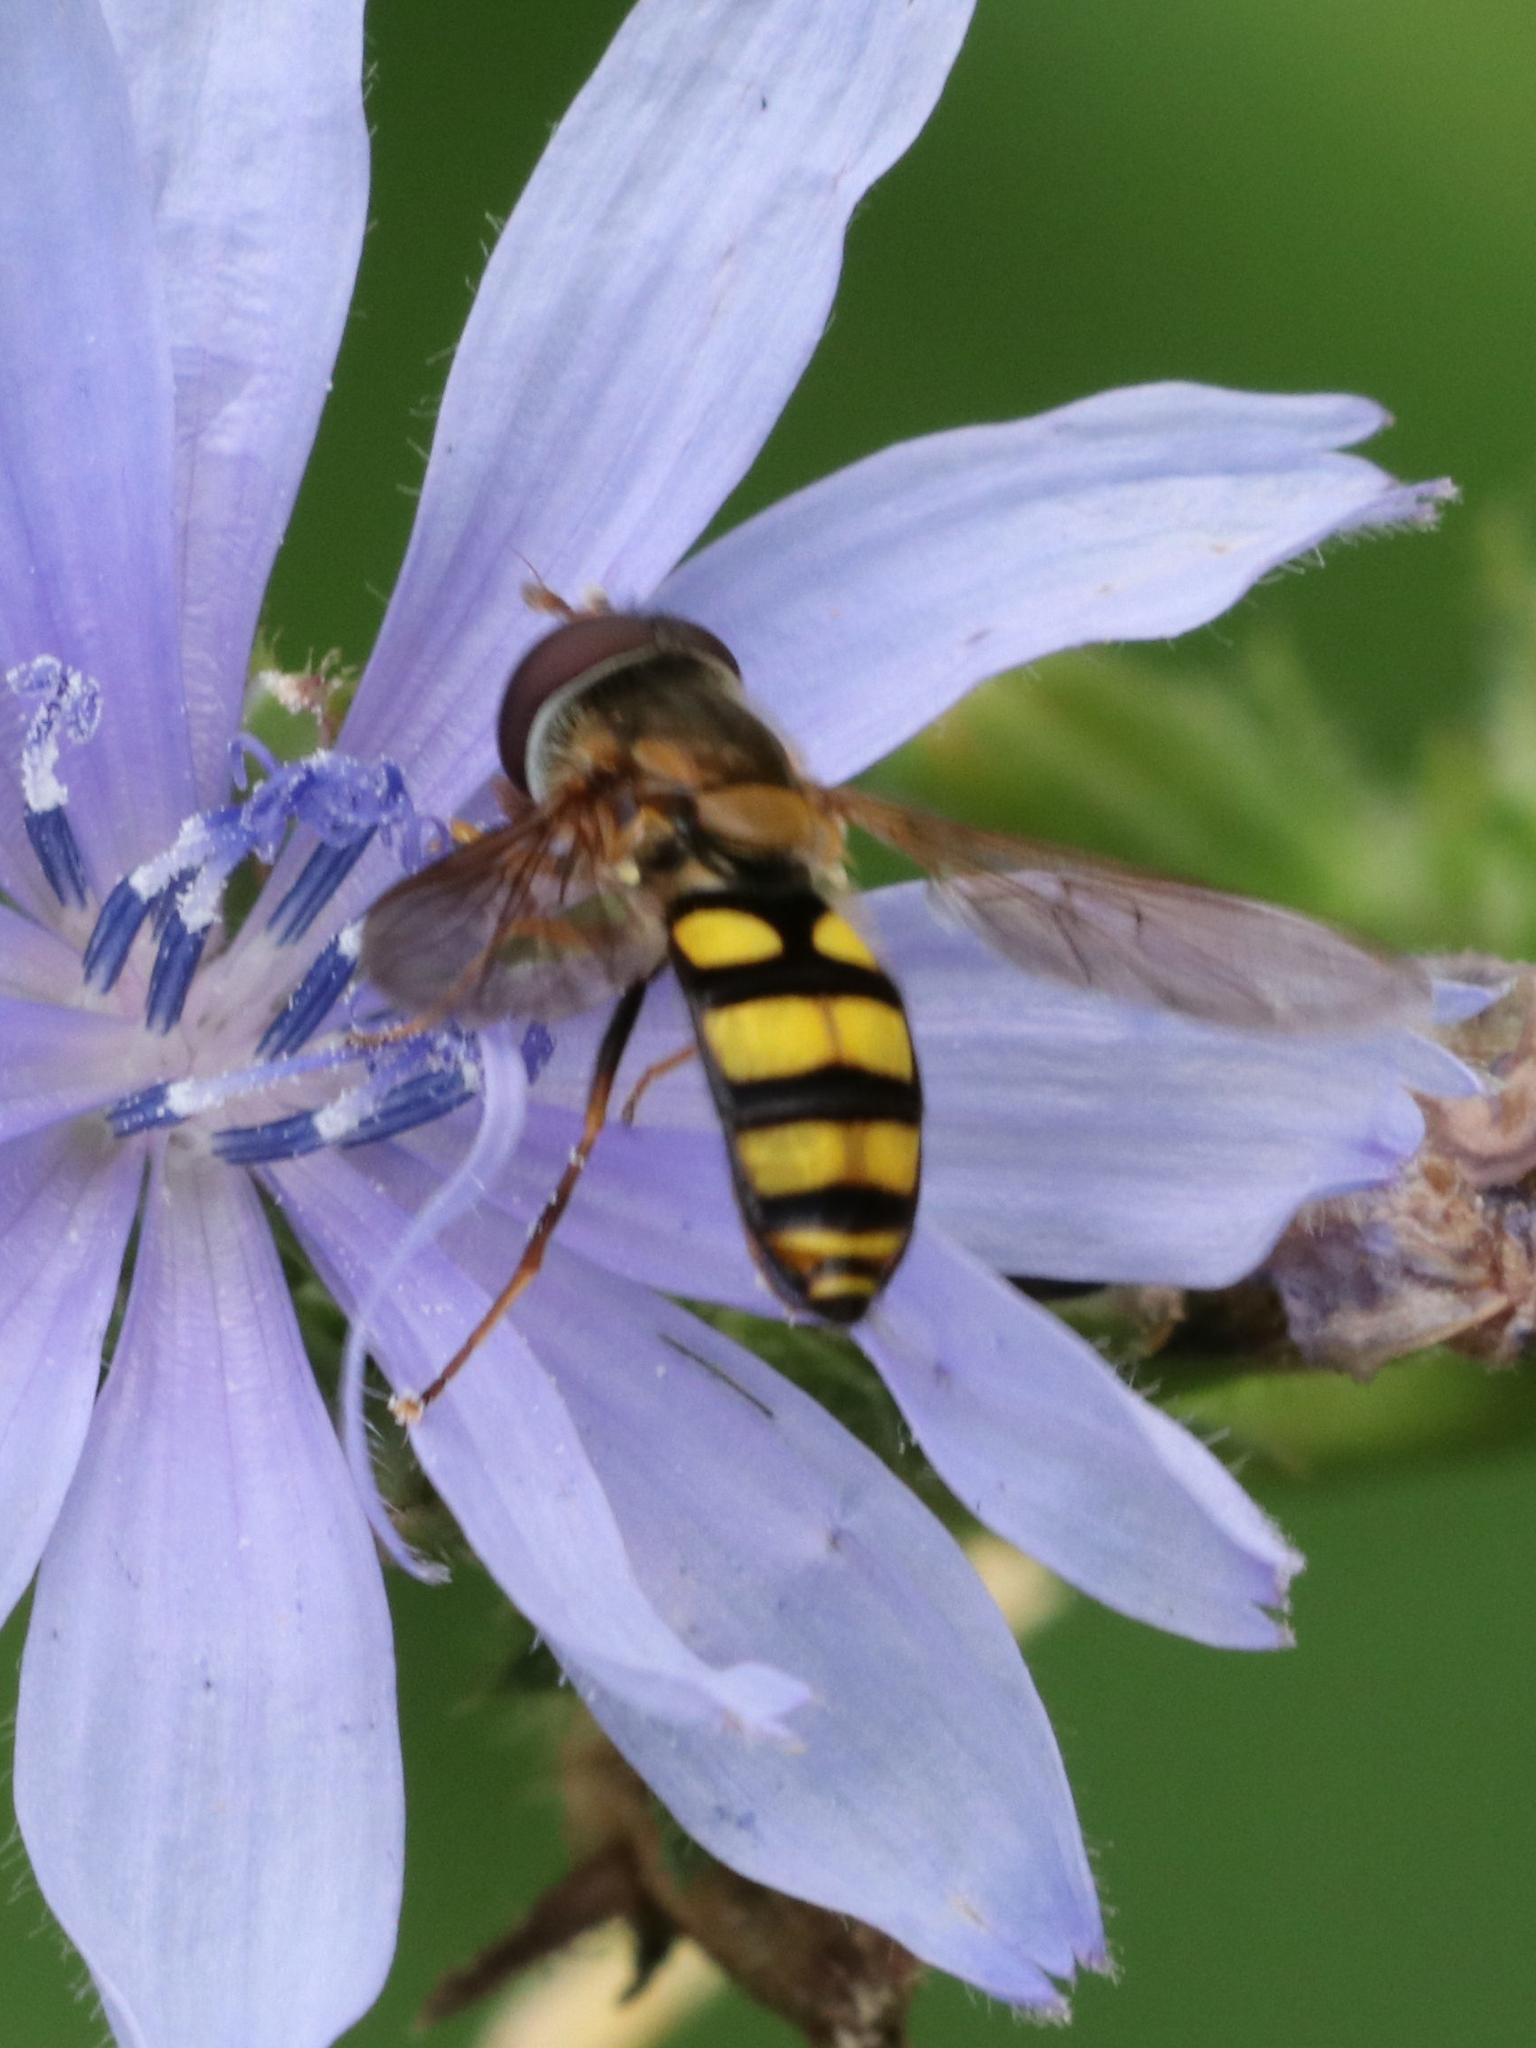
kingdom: Animalia
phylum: Arthropoda
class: Insecta
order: Diptera
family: Syrphidae
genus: Eupeodes
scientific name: Eupeodes
